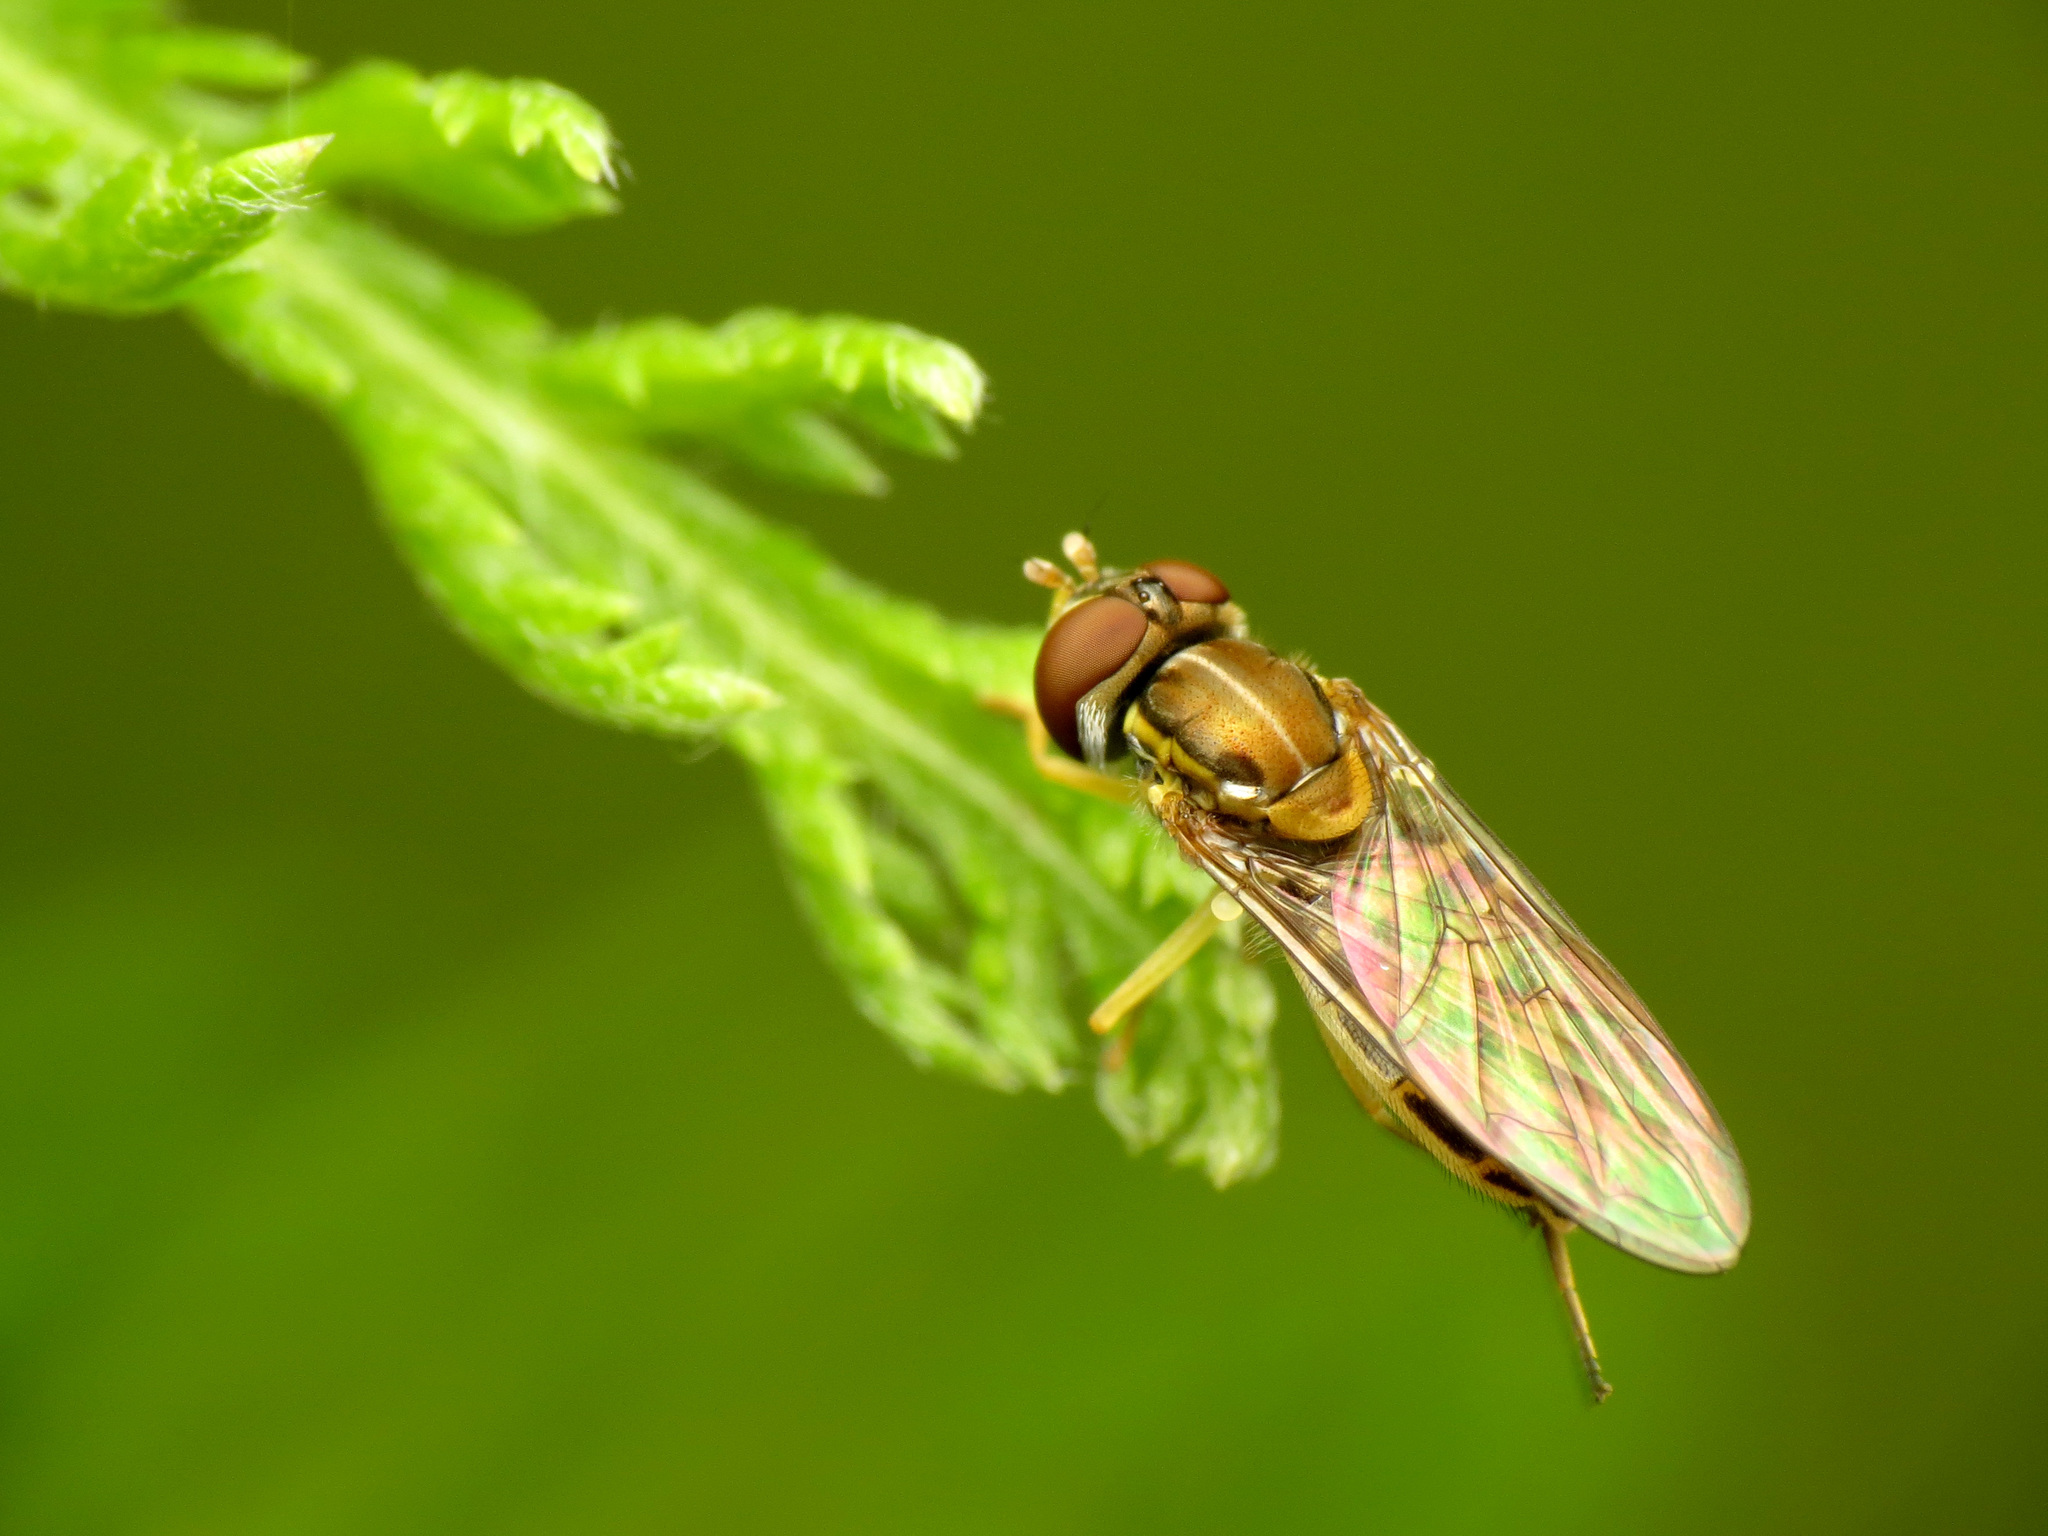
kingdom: Animalia
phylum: Arthropoda
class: Insecta
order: Diptera
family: Syrphidae
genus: Toxomerus
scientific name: Toxomerus marginatus
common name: Syrphid fly
